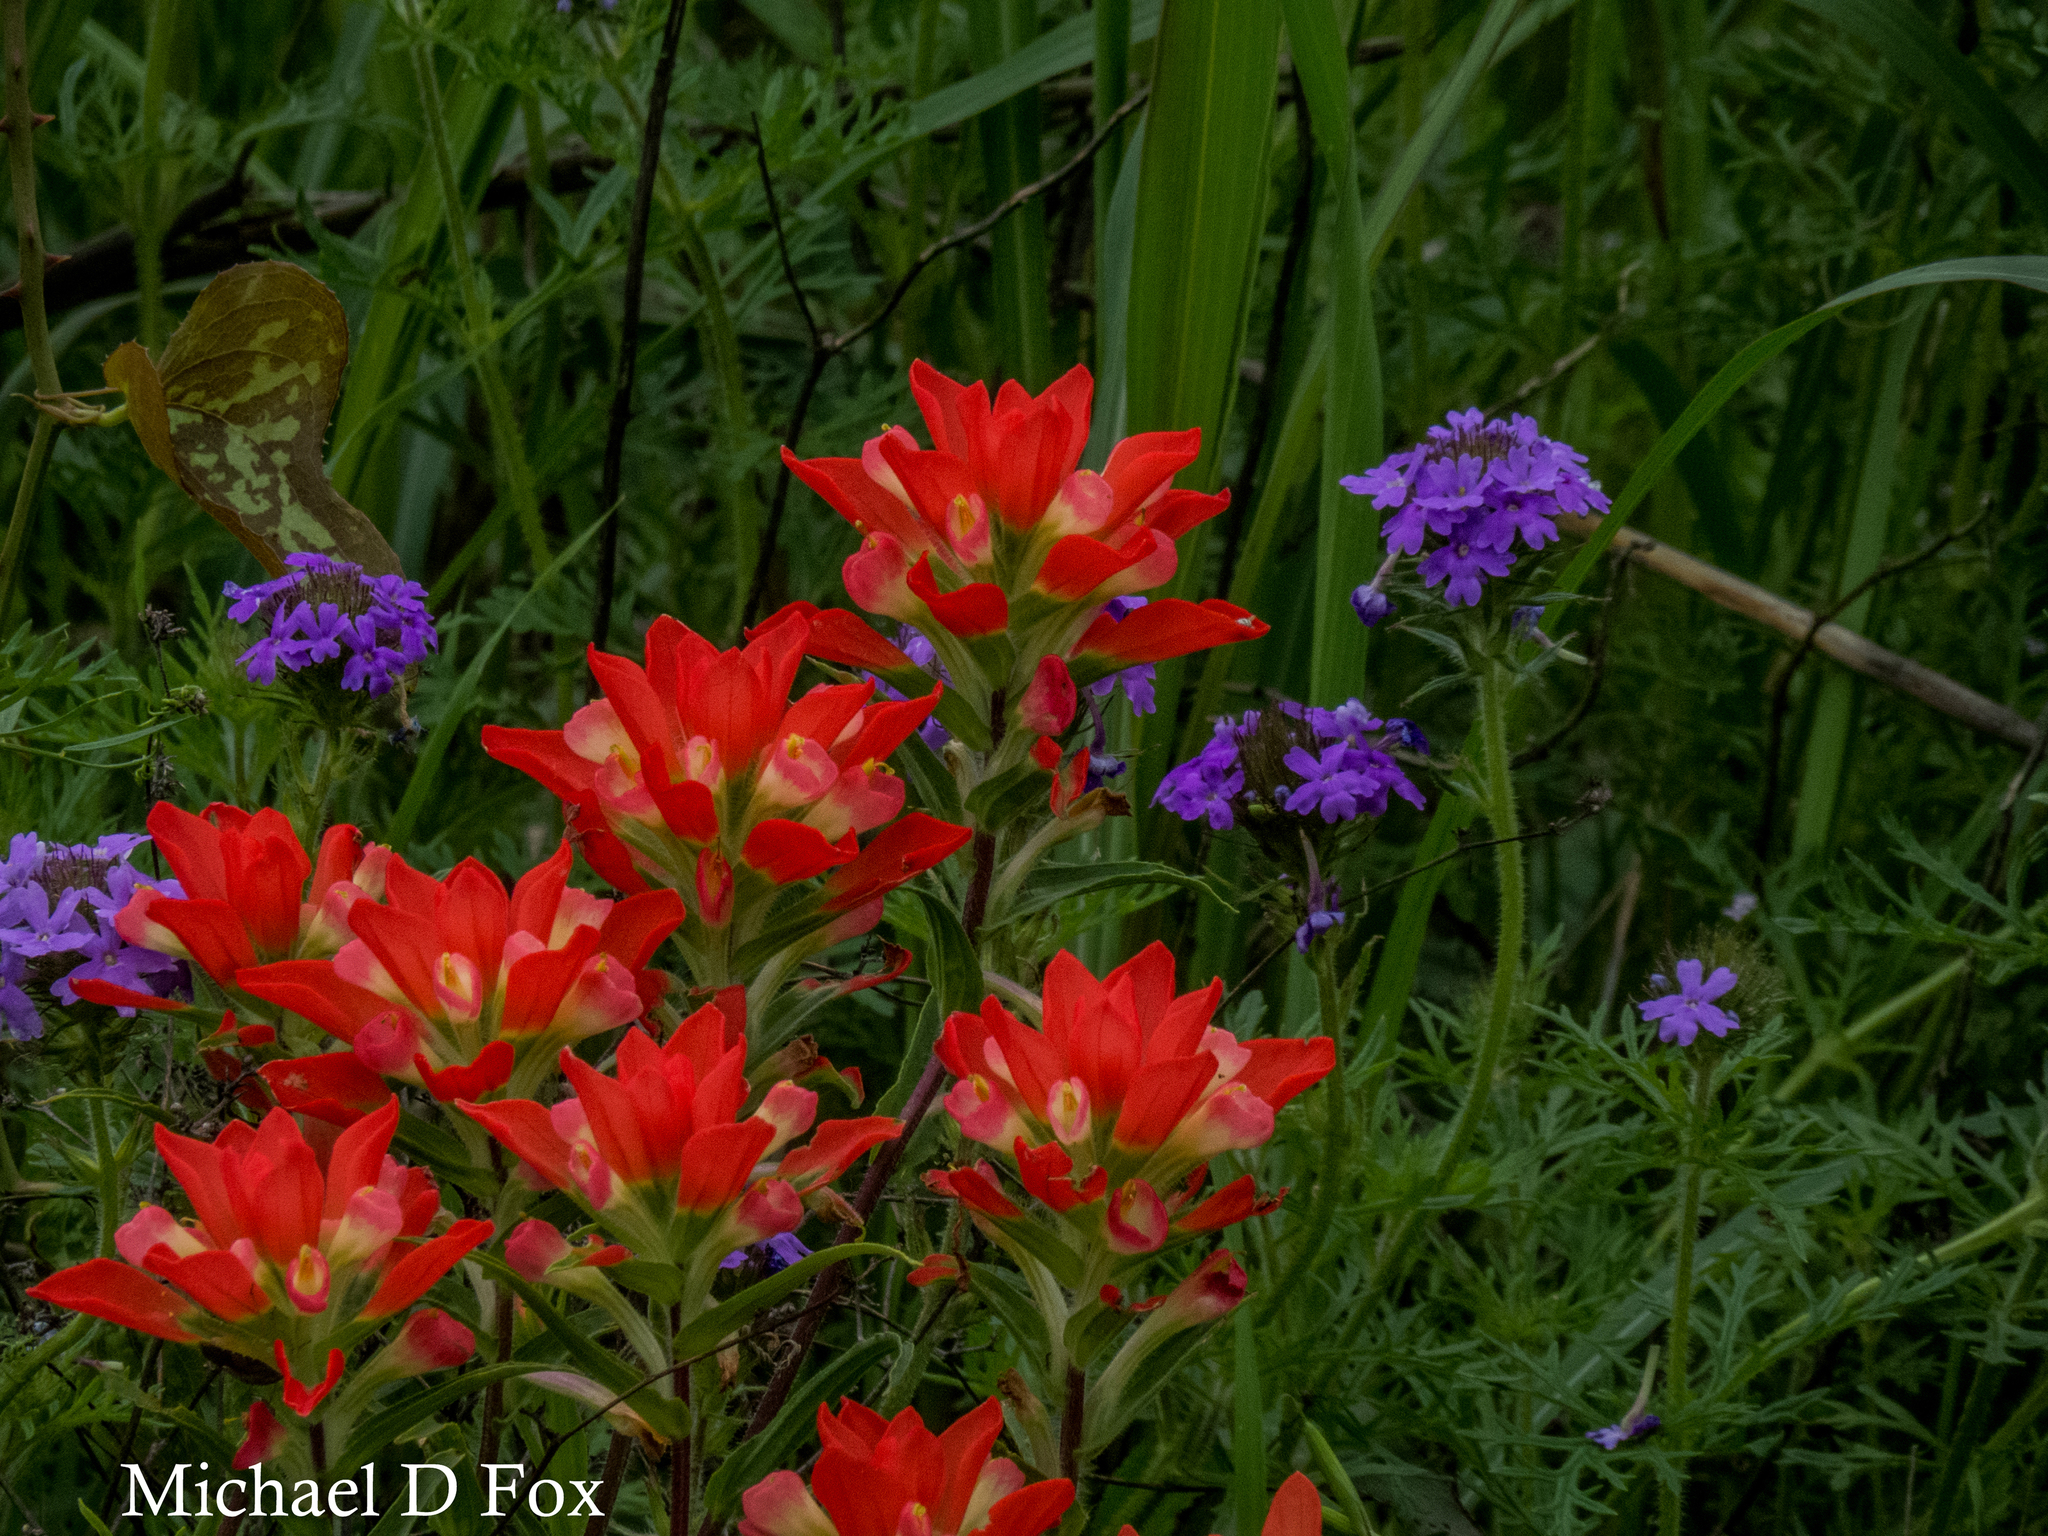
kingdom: Plantae
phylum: Tracheophyta
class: Magnoliopsida
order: Lamiales
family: Orobanchaceae
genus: Castilleja
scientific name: Castilleja indivisa
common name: Texas paintbrush
